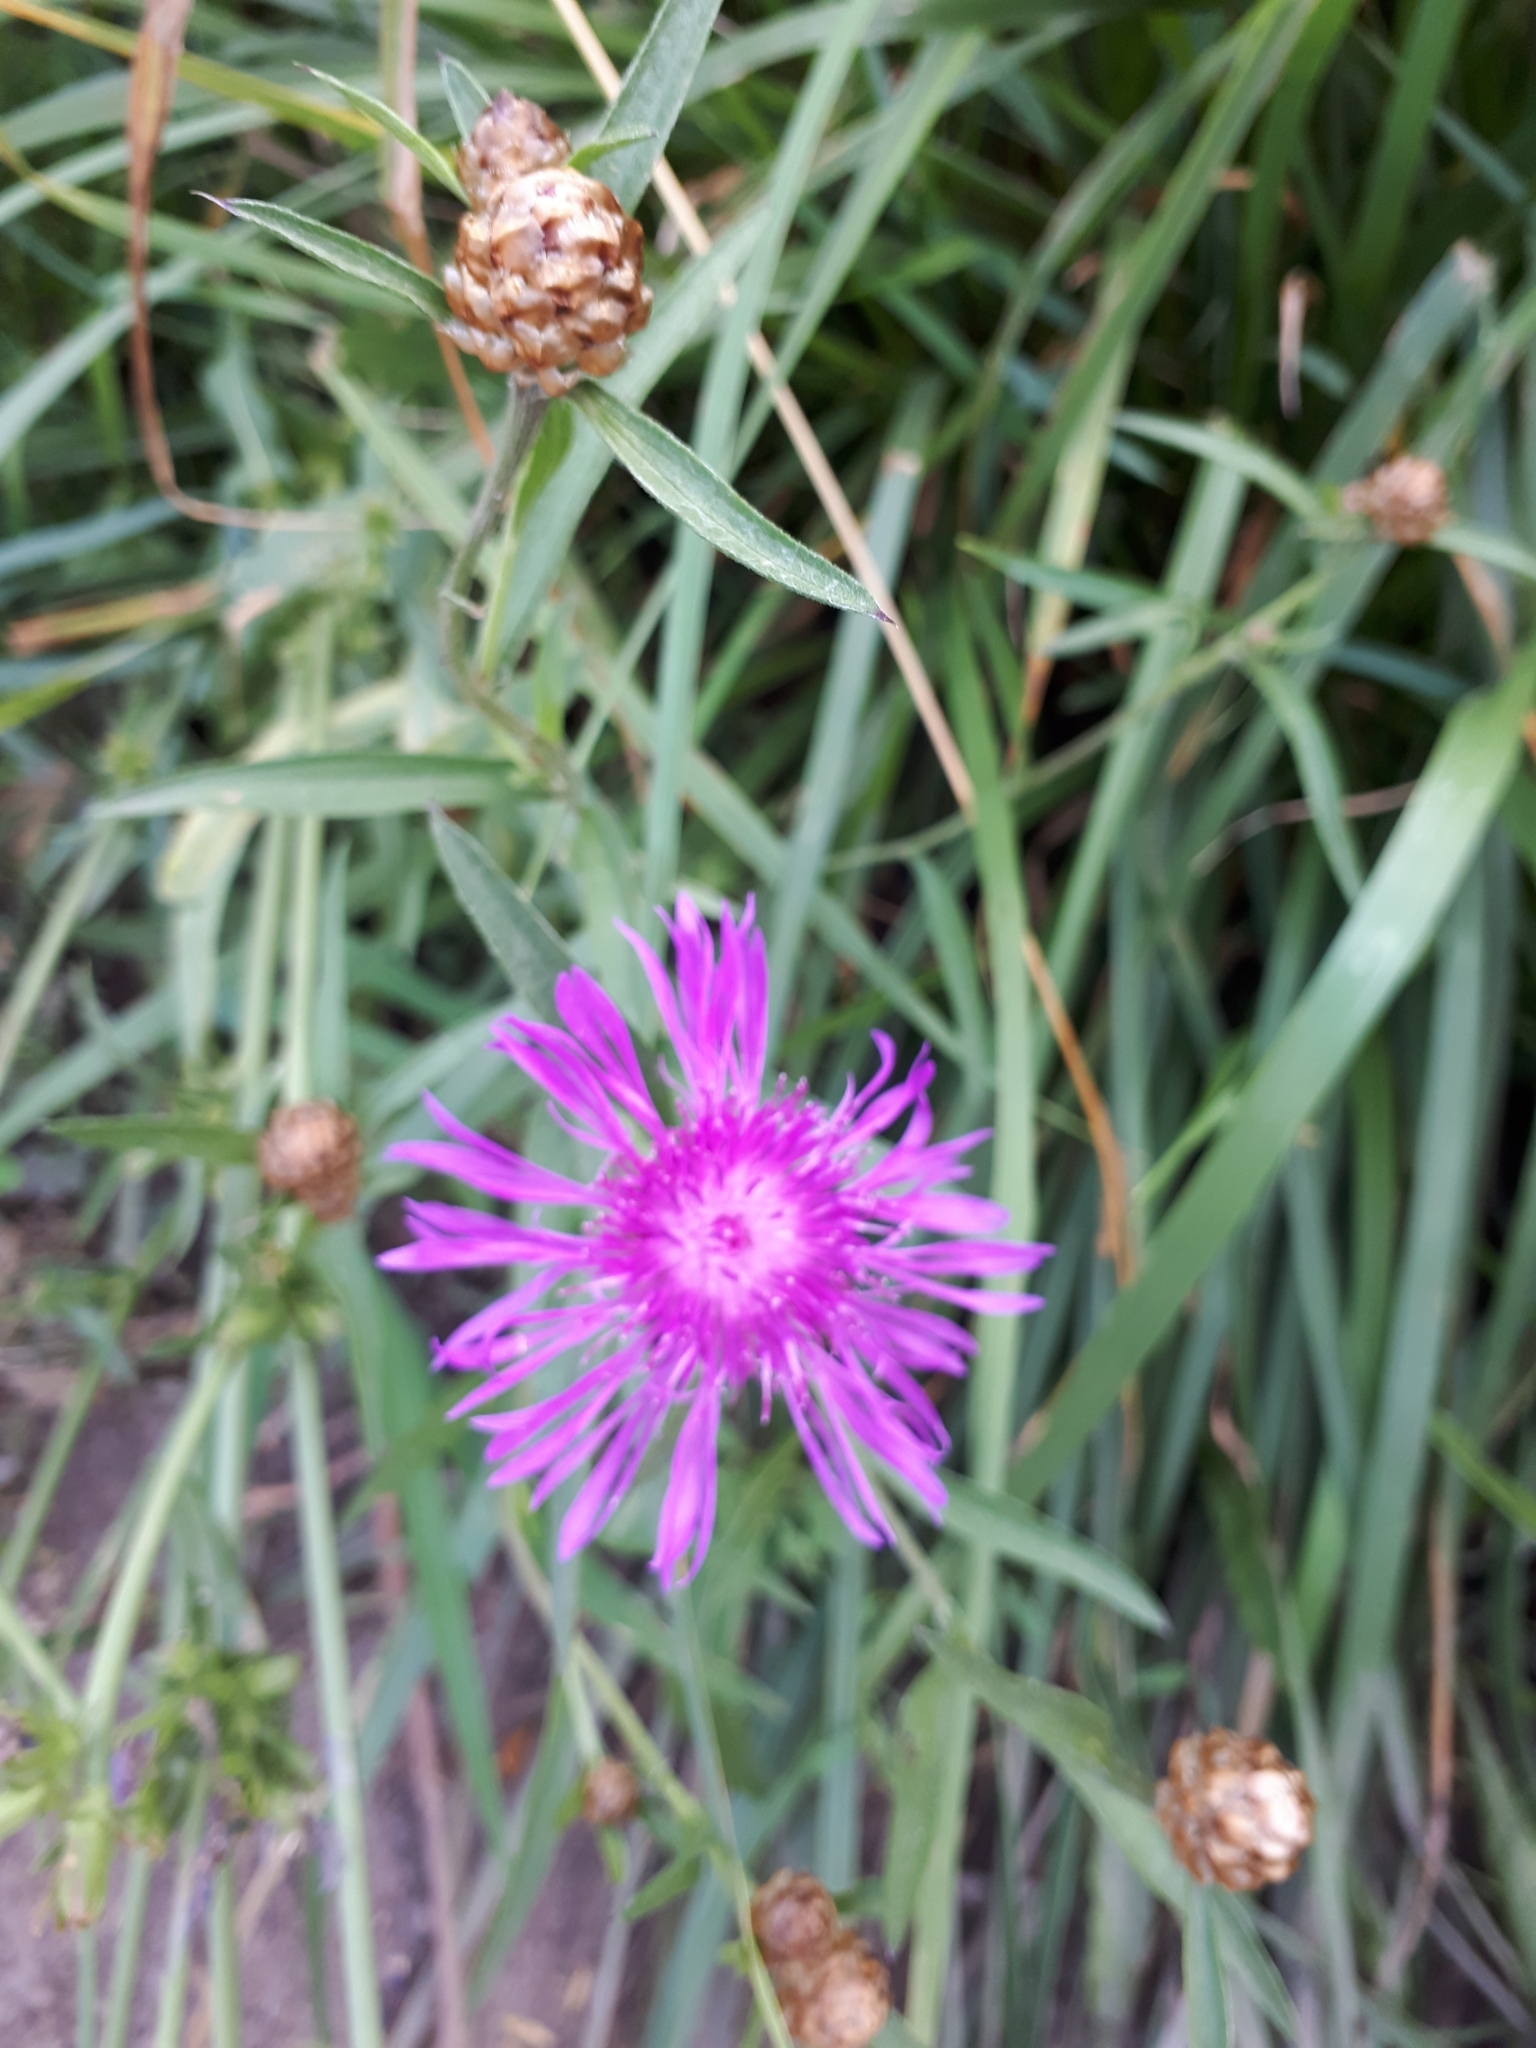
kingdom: Plantae
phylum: Tracheophyta
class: Magnoliopsida
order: Asterales
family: Asteraceae
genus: Centaurea
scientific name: Centaurea jacea
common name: Brown knapweed
